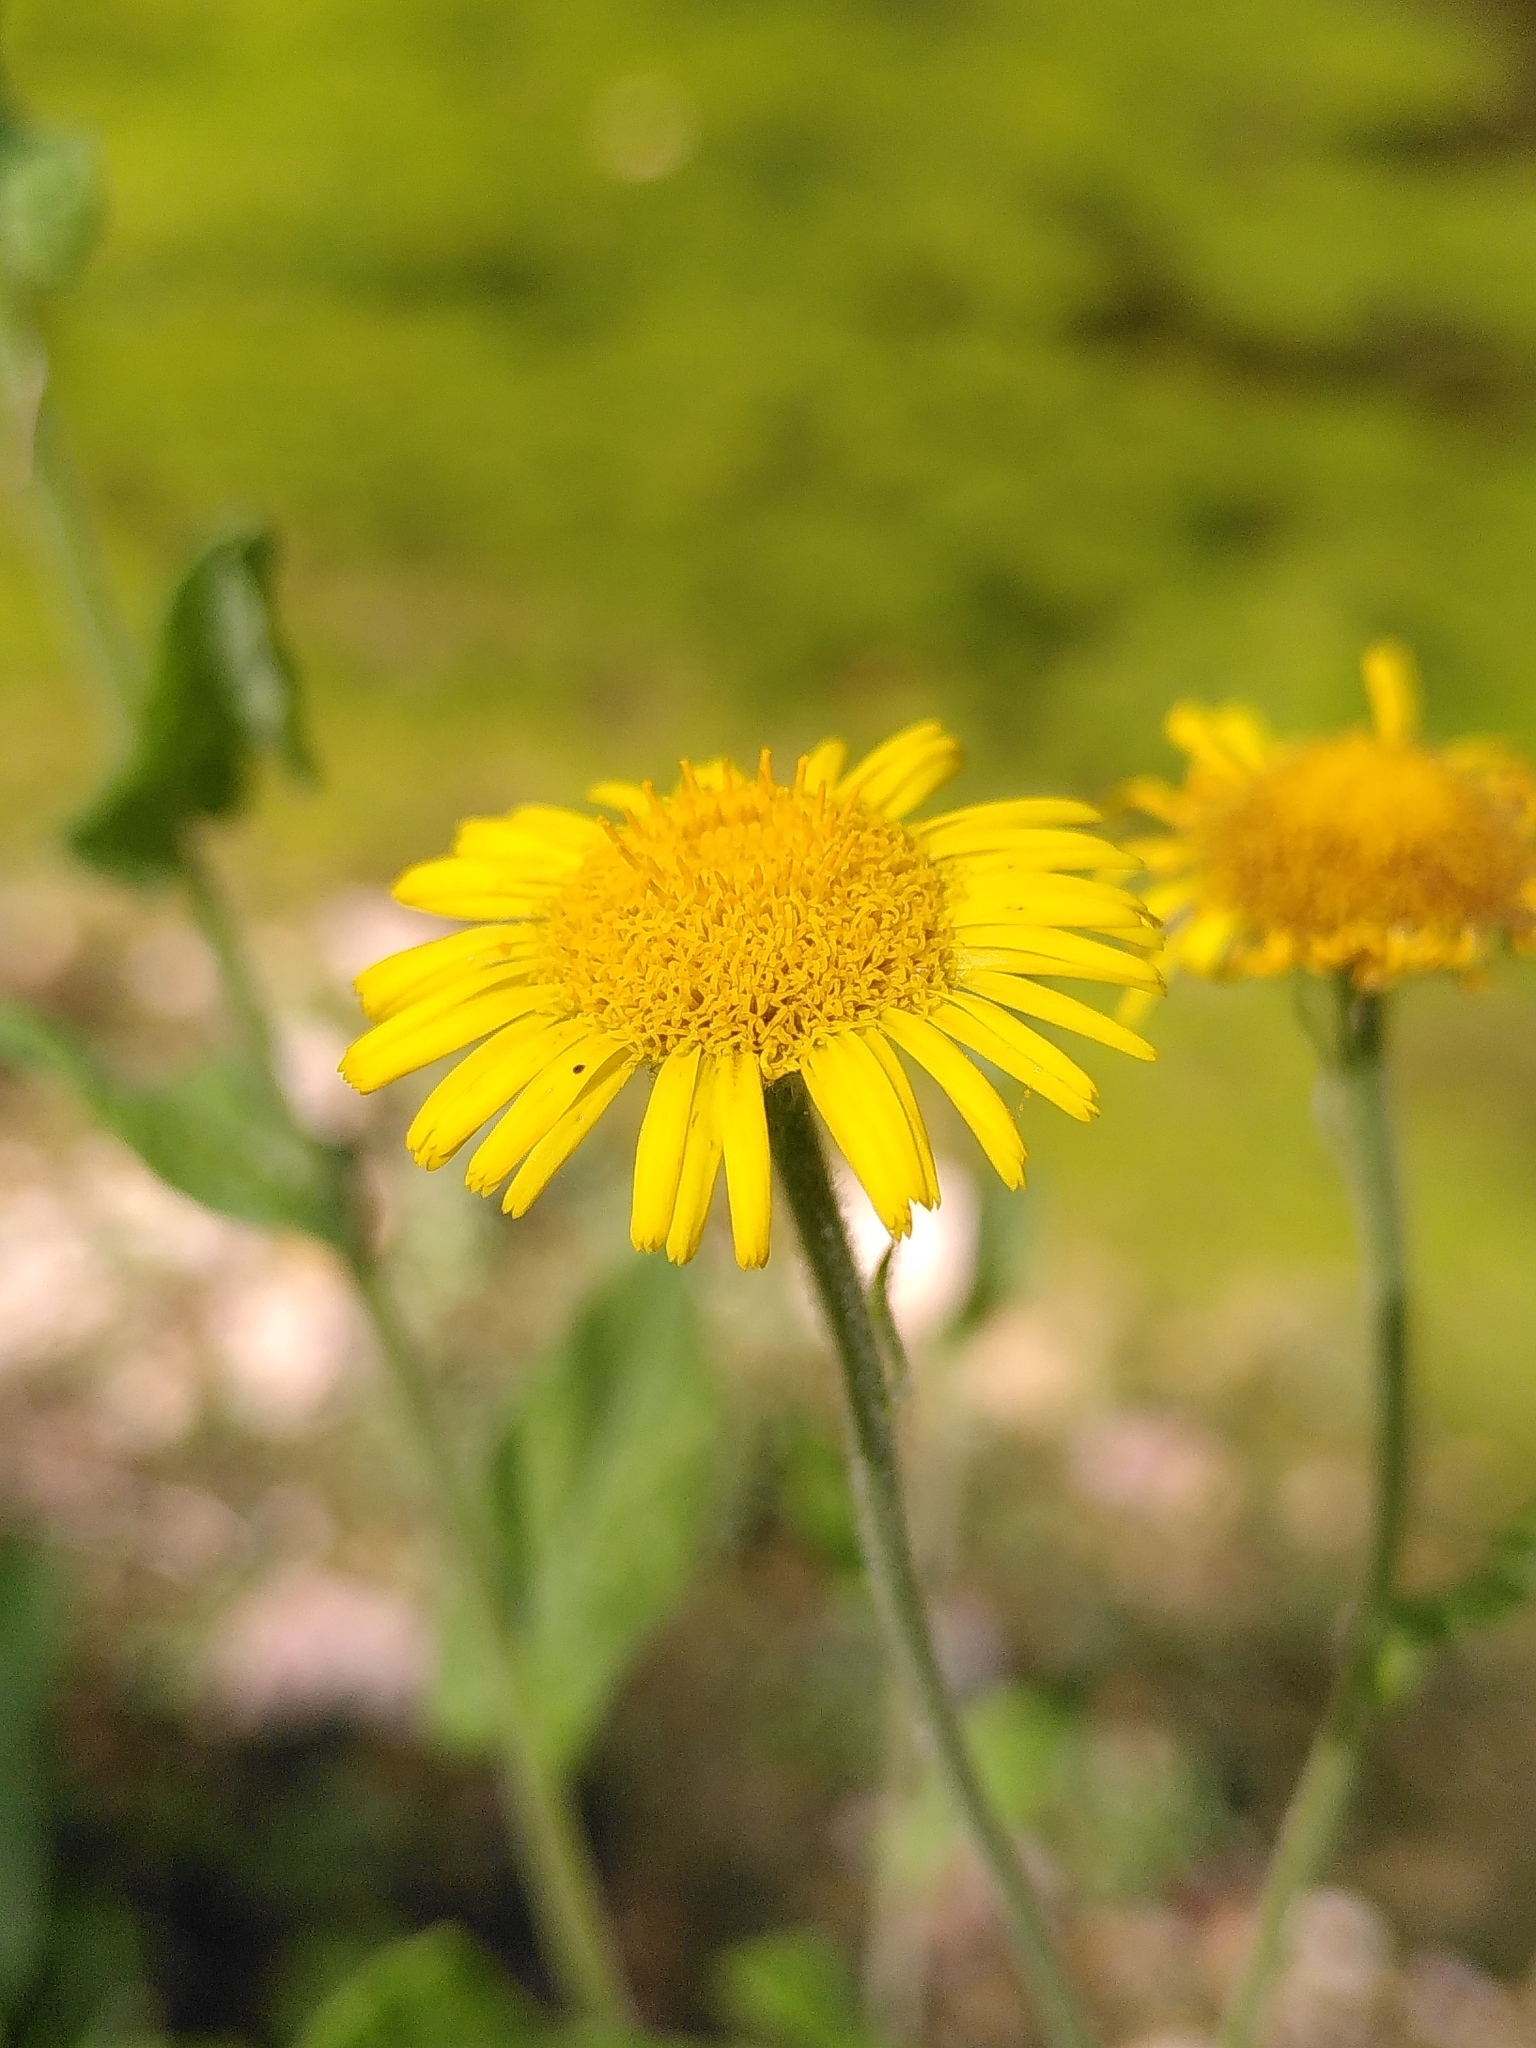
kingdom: Plantae
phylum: Tracheophyta
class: Magnoliopsida
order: Asterales
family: Asteraceae
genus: Pulicaria
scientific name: Pulicaria dysenterica
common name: Common fleabane
